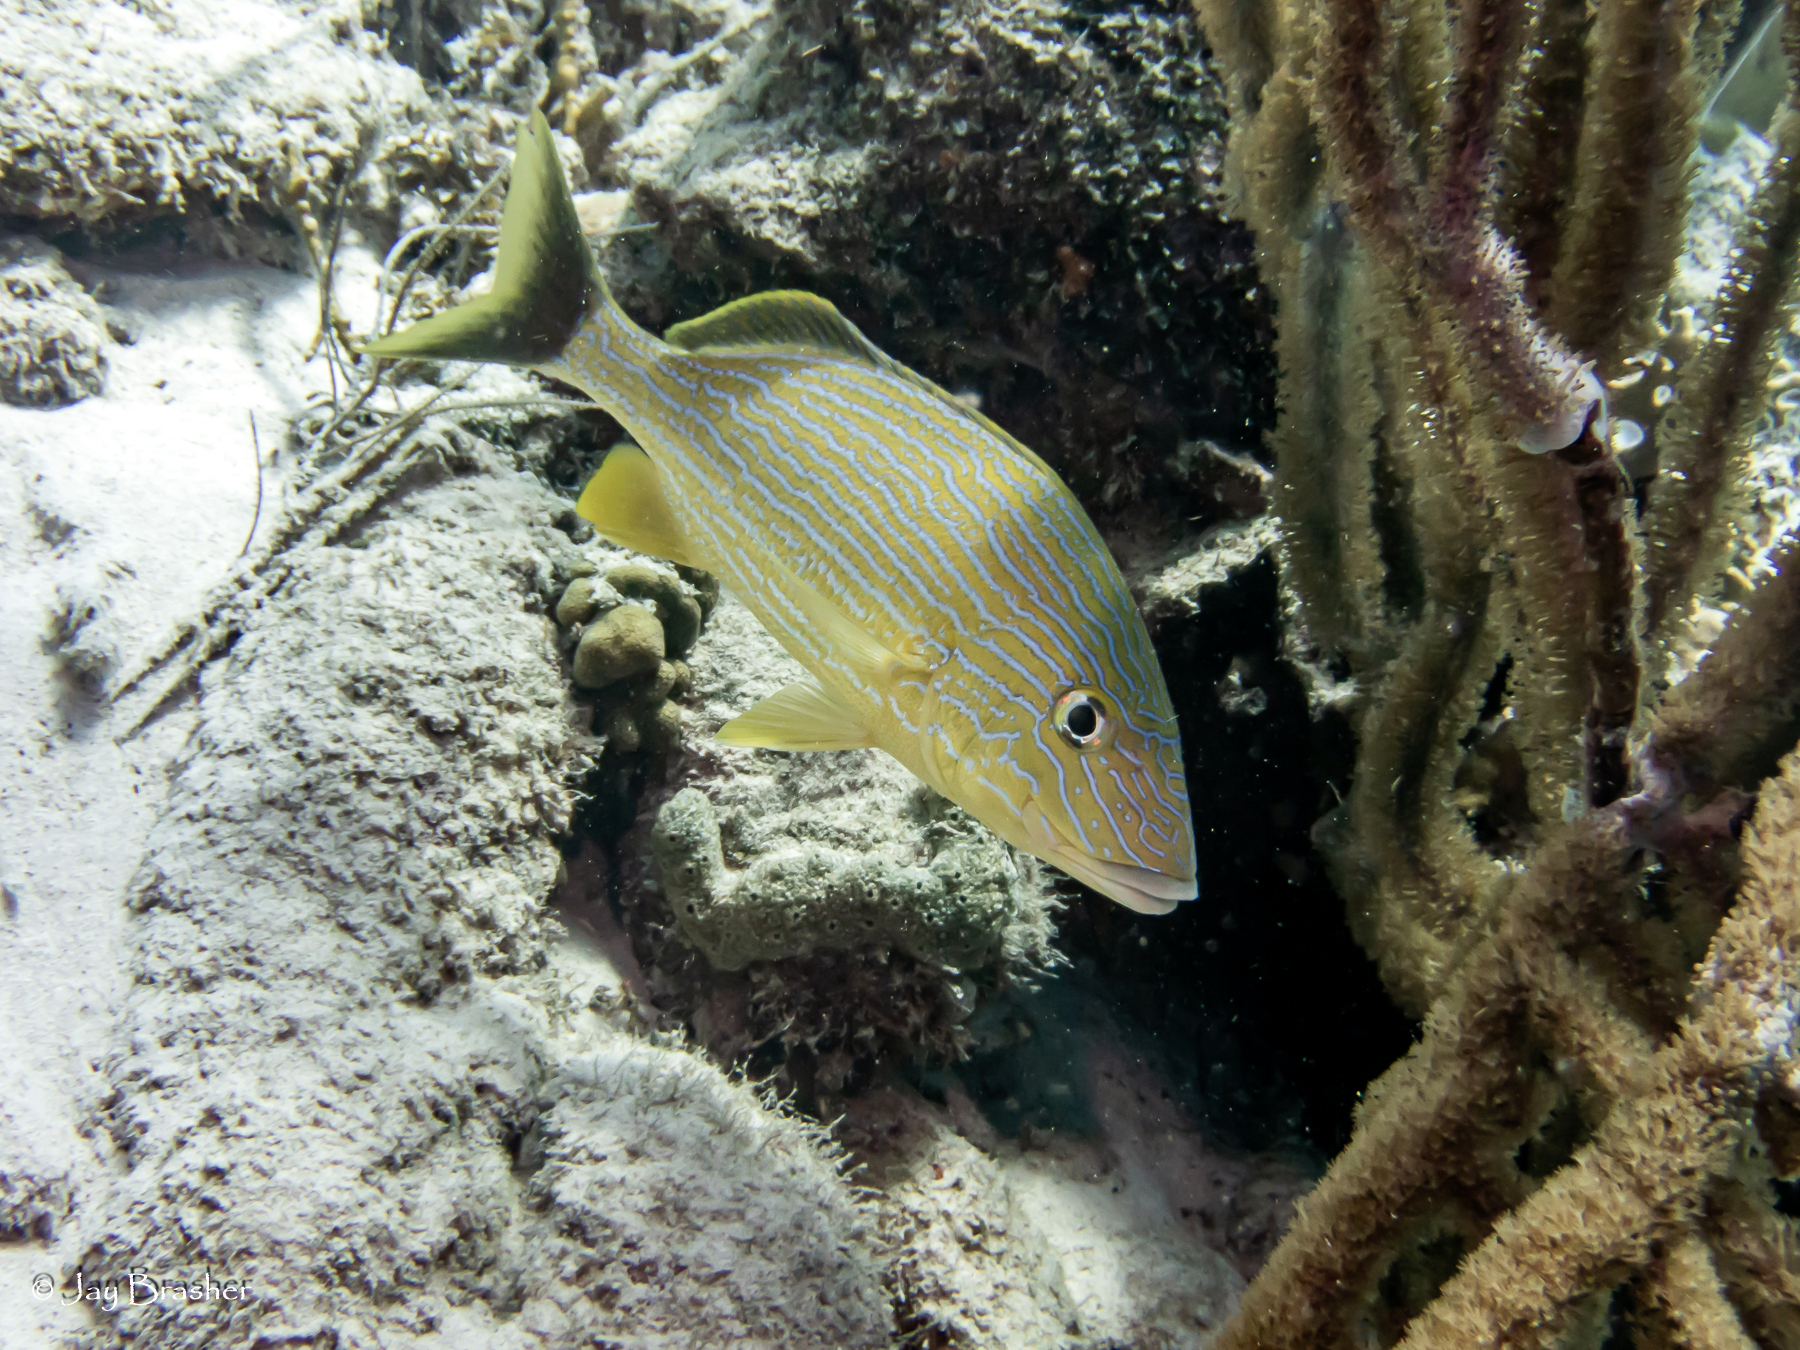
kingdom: Animalia
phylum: Chordata
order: Perciformes
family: Haemulidae
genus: Haemulon
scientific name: Haemulon sciurus
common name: Bluestriped grunt
